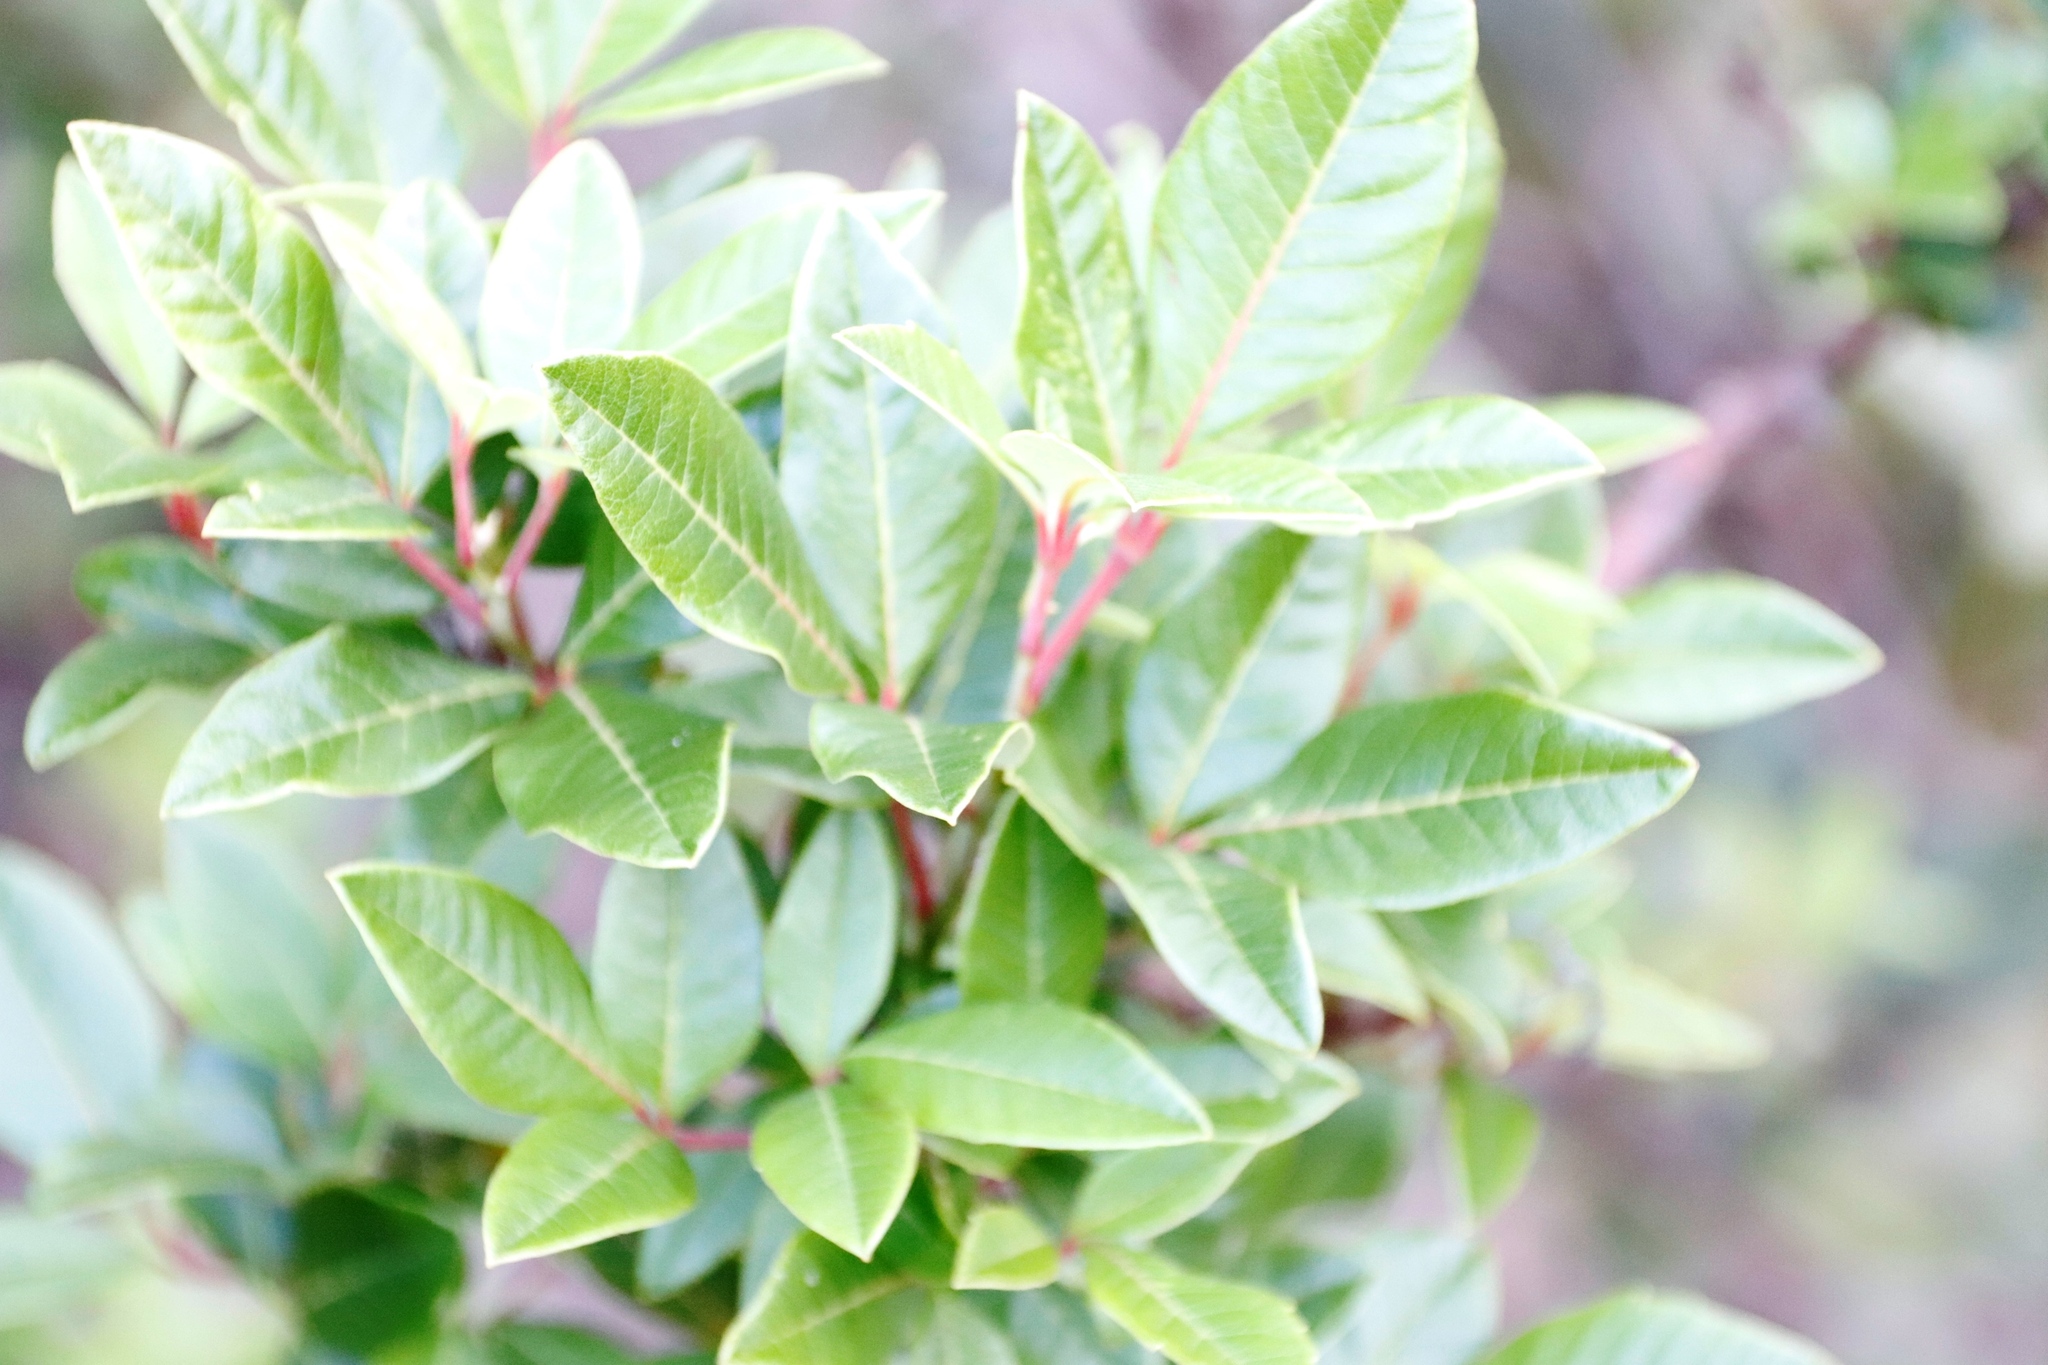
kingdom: Plantae
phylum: Tracheophyta
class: Magnoliopsida
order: Sapindales
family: Anacardiaceae
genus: Searsia
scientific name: Searsia tomentosa
